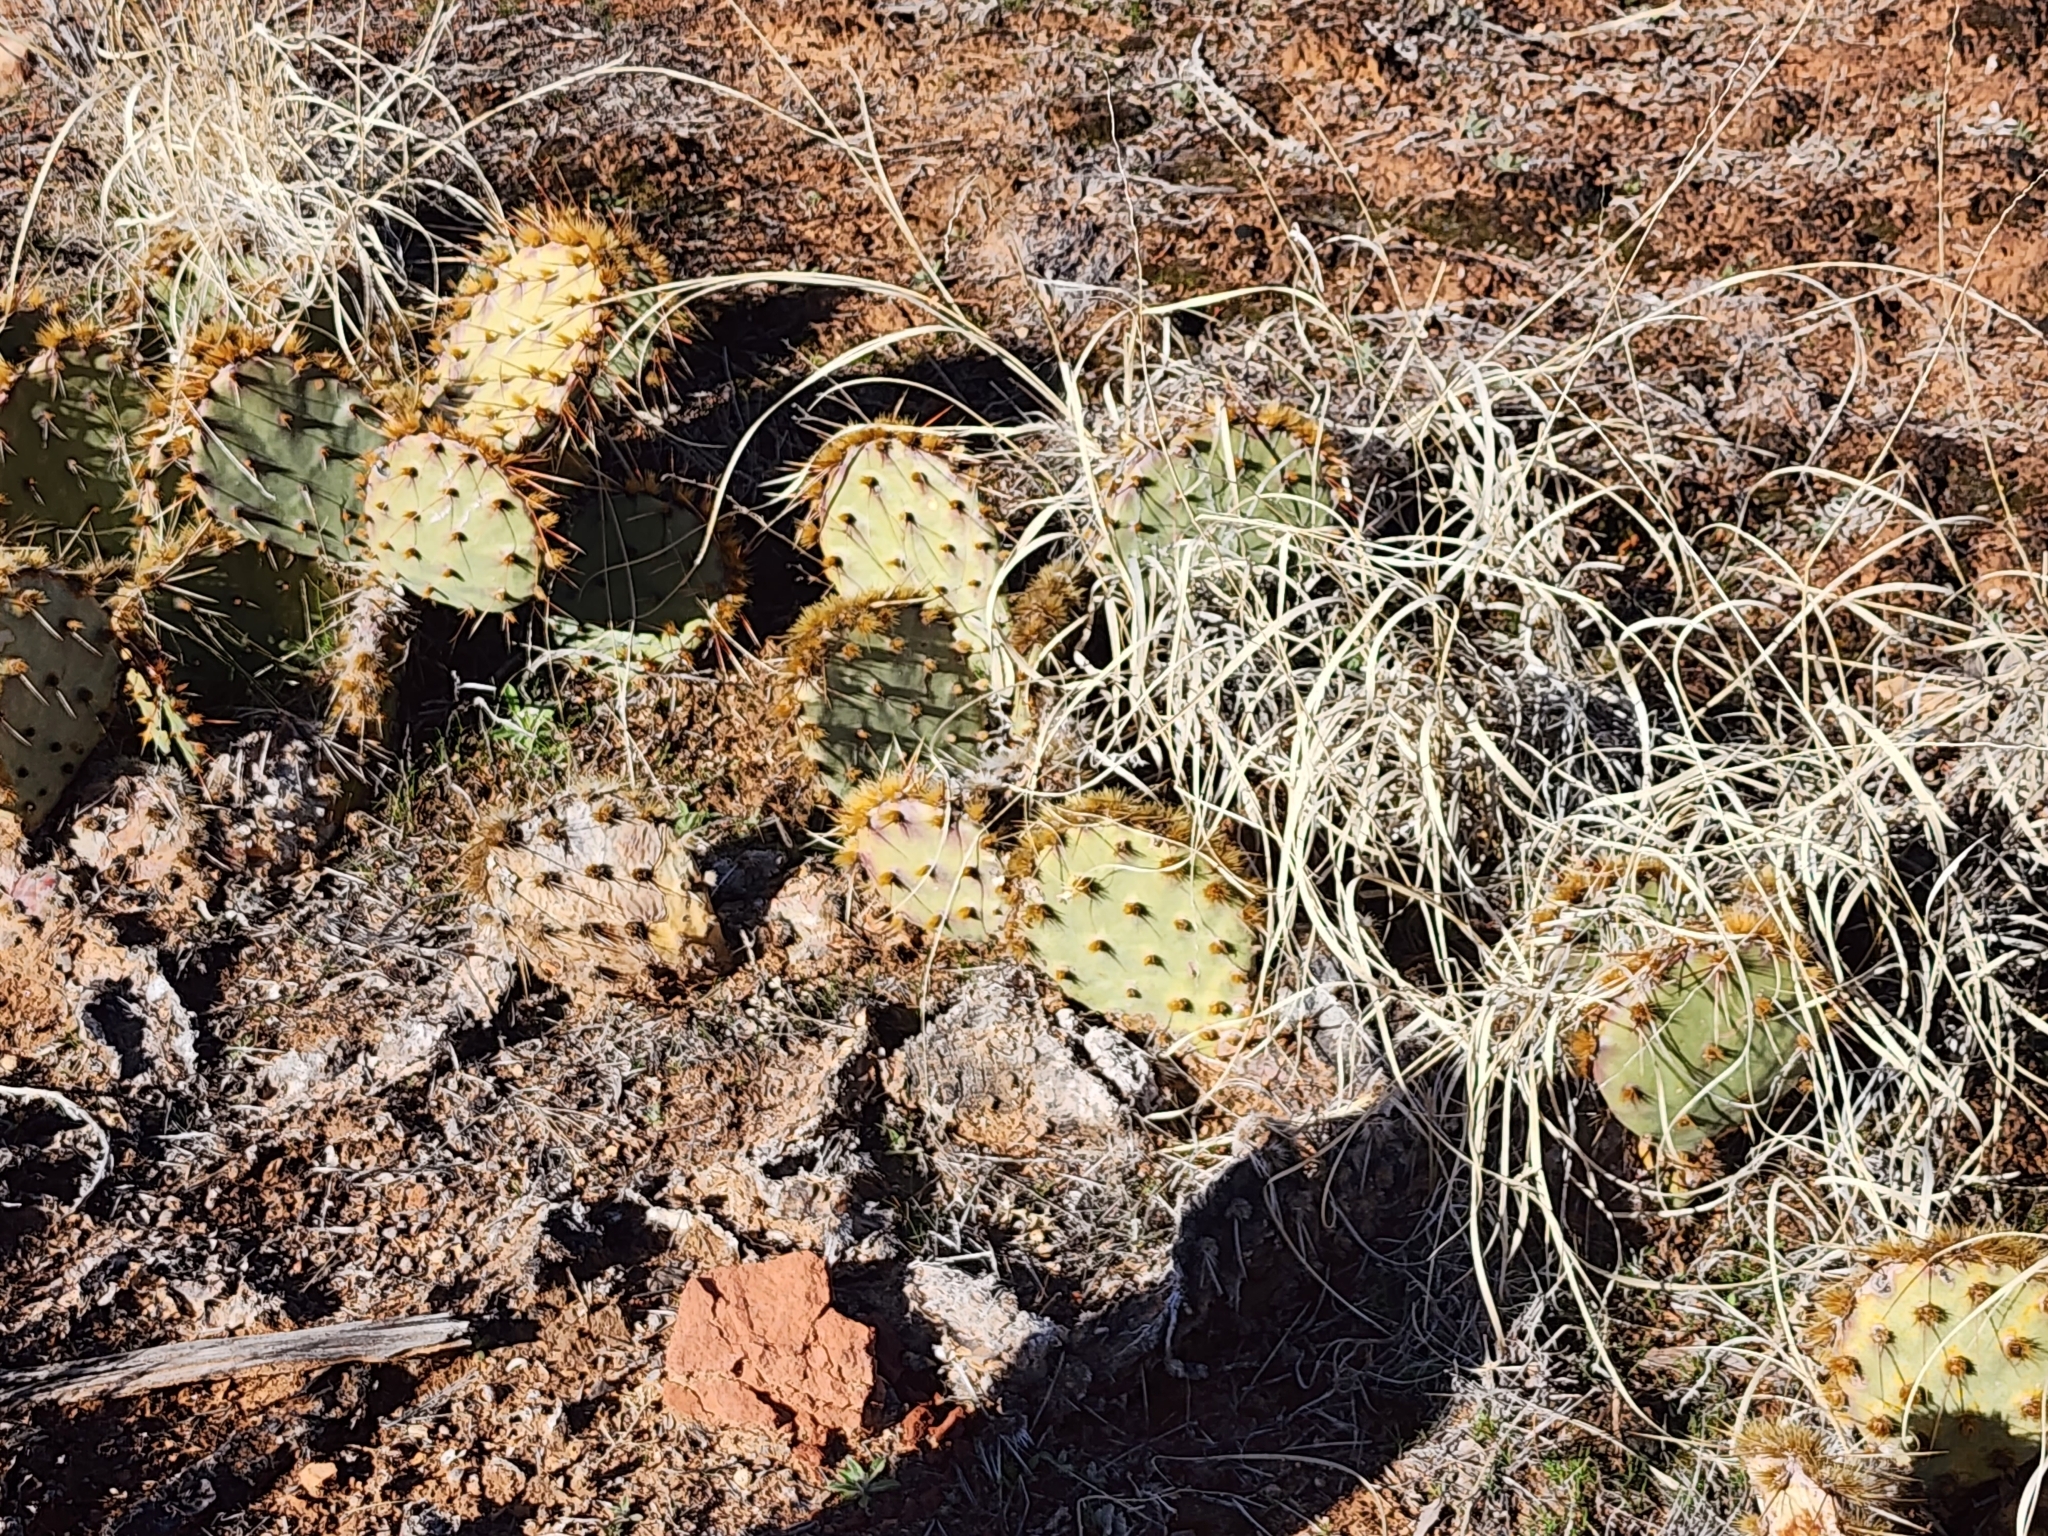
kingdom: Plantae
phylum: Tracheophyta
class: Magnoliopsida
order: Caryophyllales
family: Cactaceae
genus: Opuntia
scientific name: Opuntia phaeacantha
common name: New mexico prickly-pear
